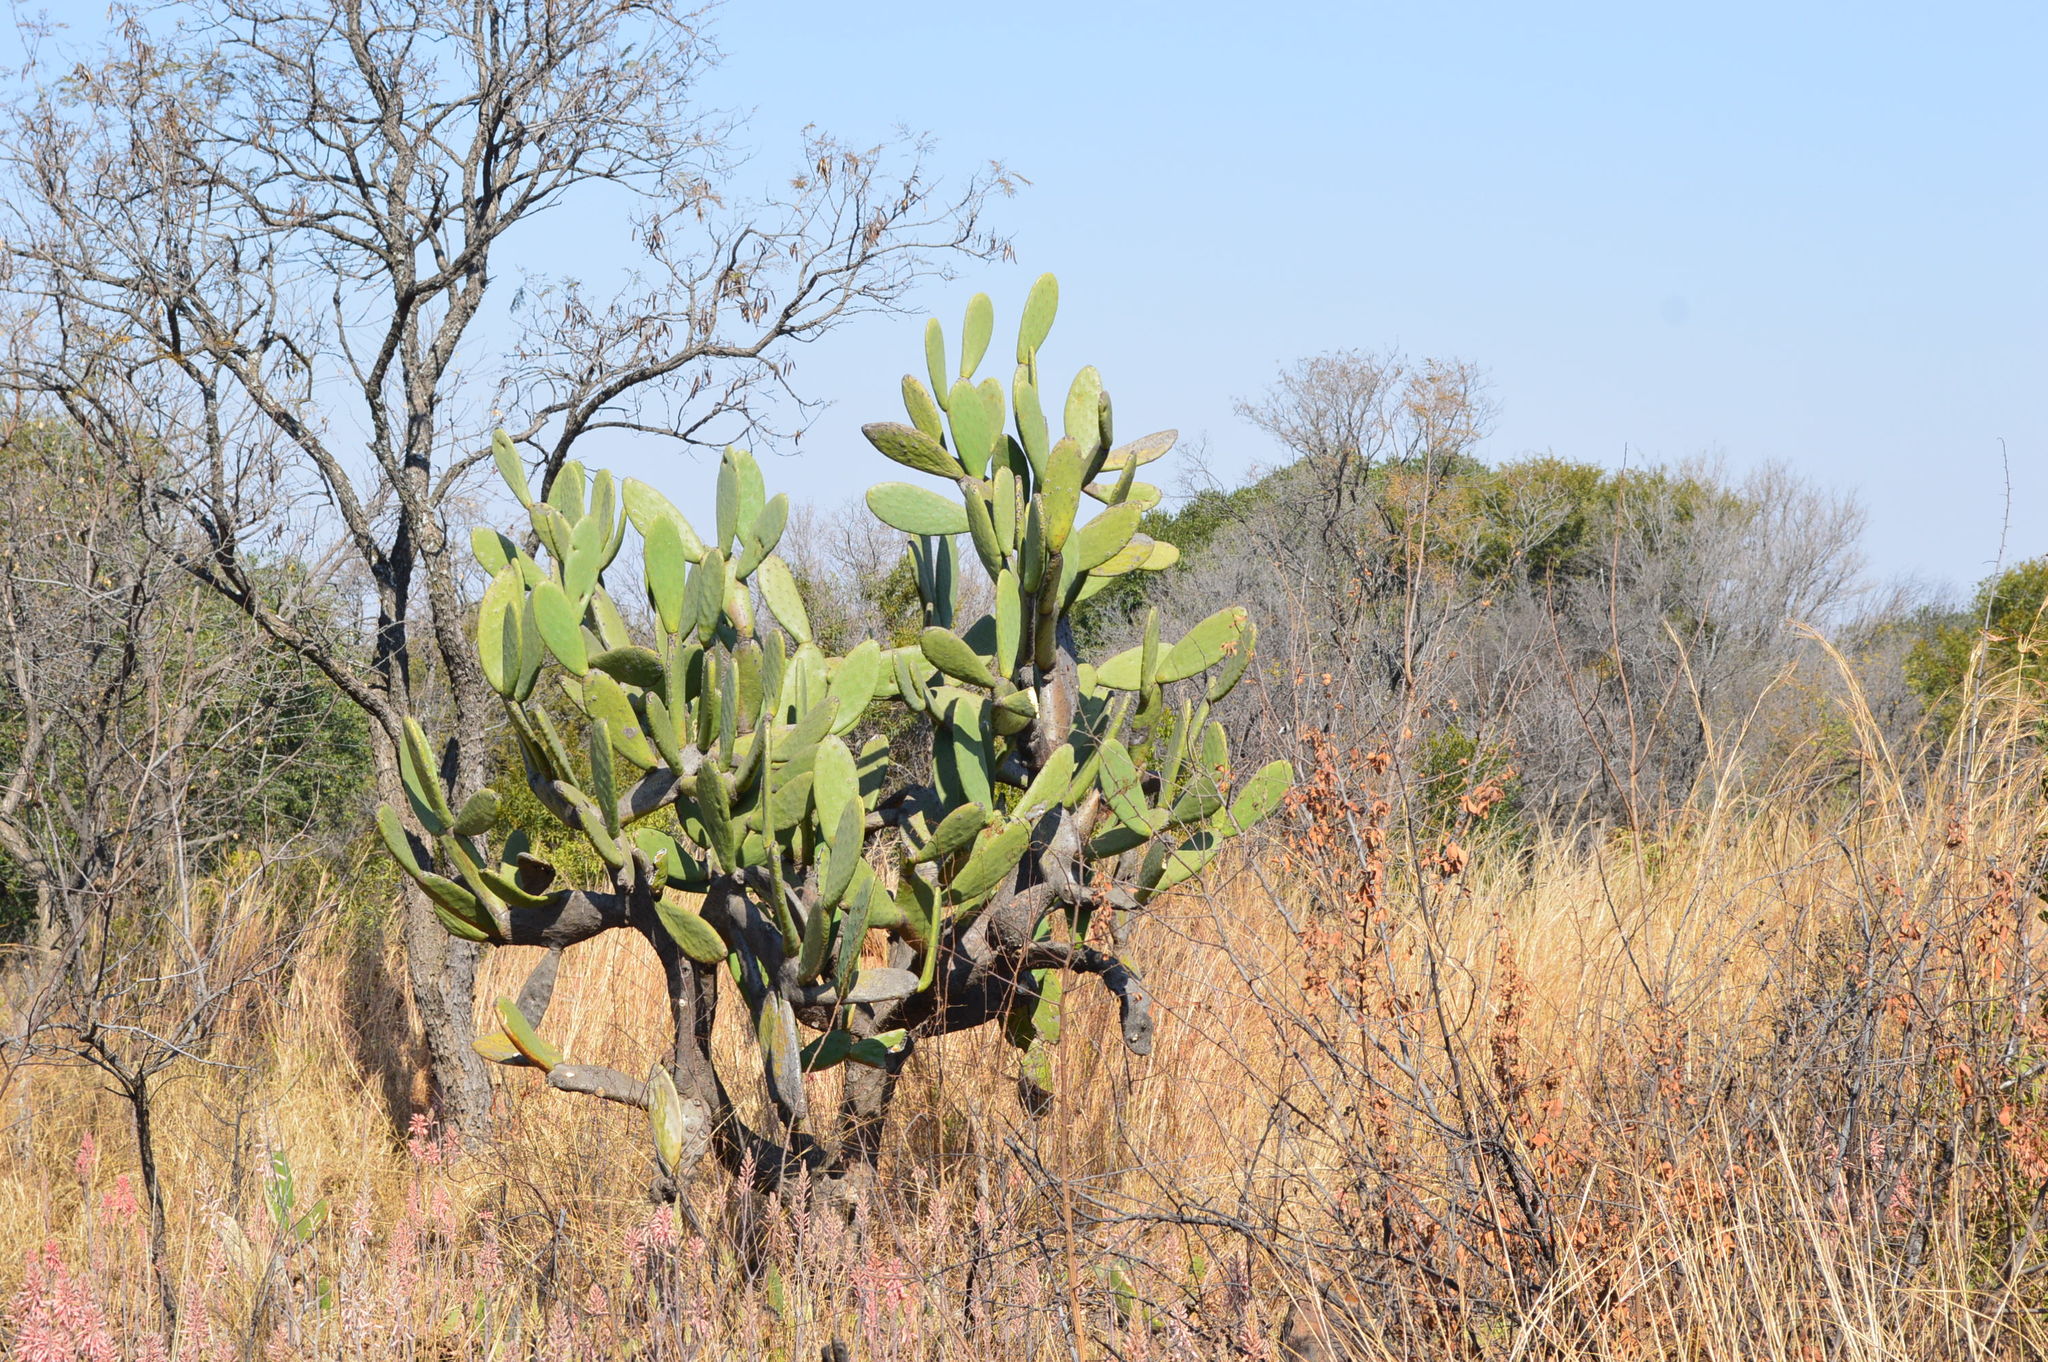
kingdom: Plantae
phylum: Tracheophyta
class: Magnoliopsida
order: Caryophyllales
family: Cactaceae
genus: Opuntia
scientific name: Opuntia ficus-indica
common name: Barbary fig
